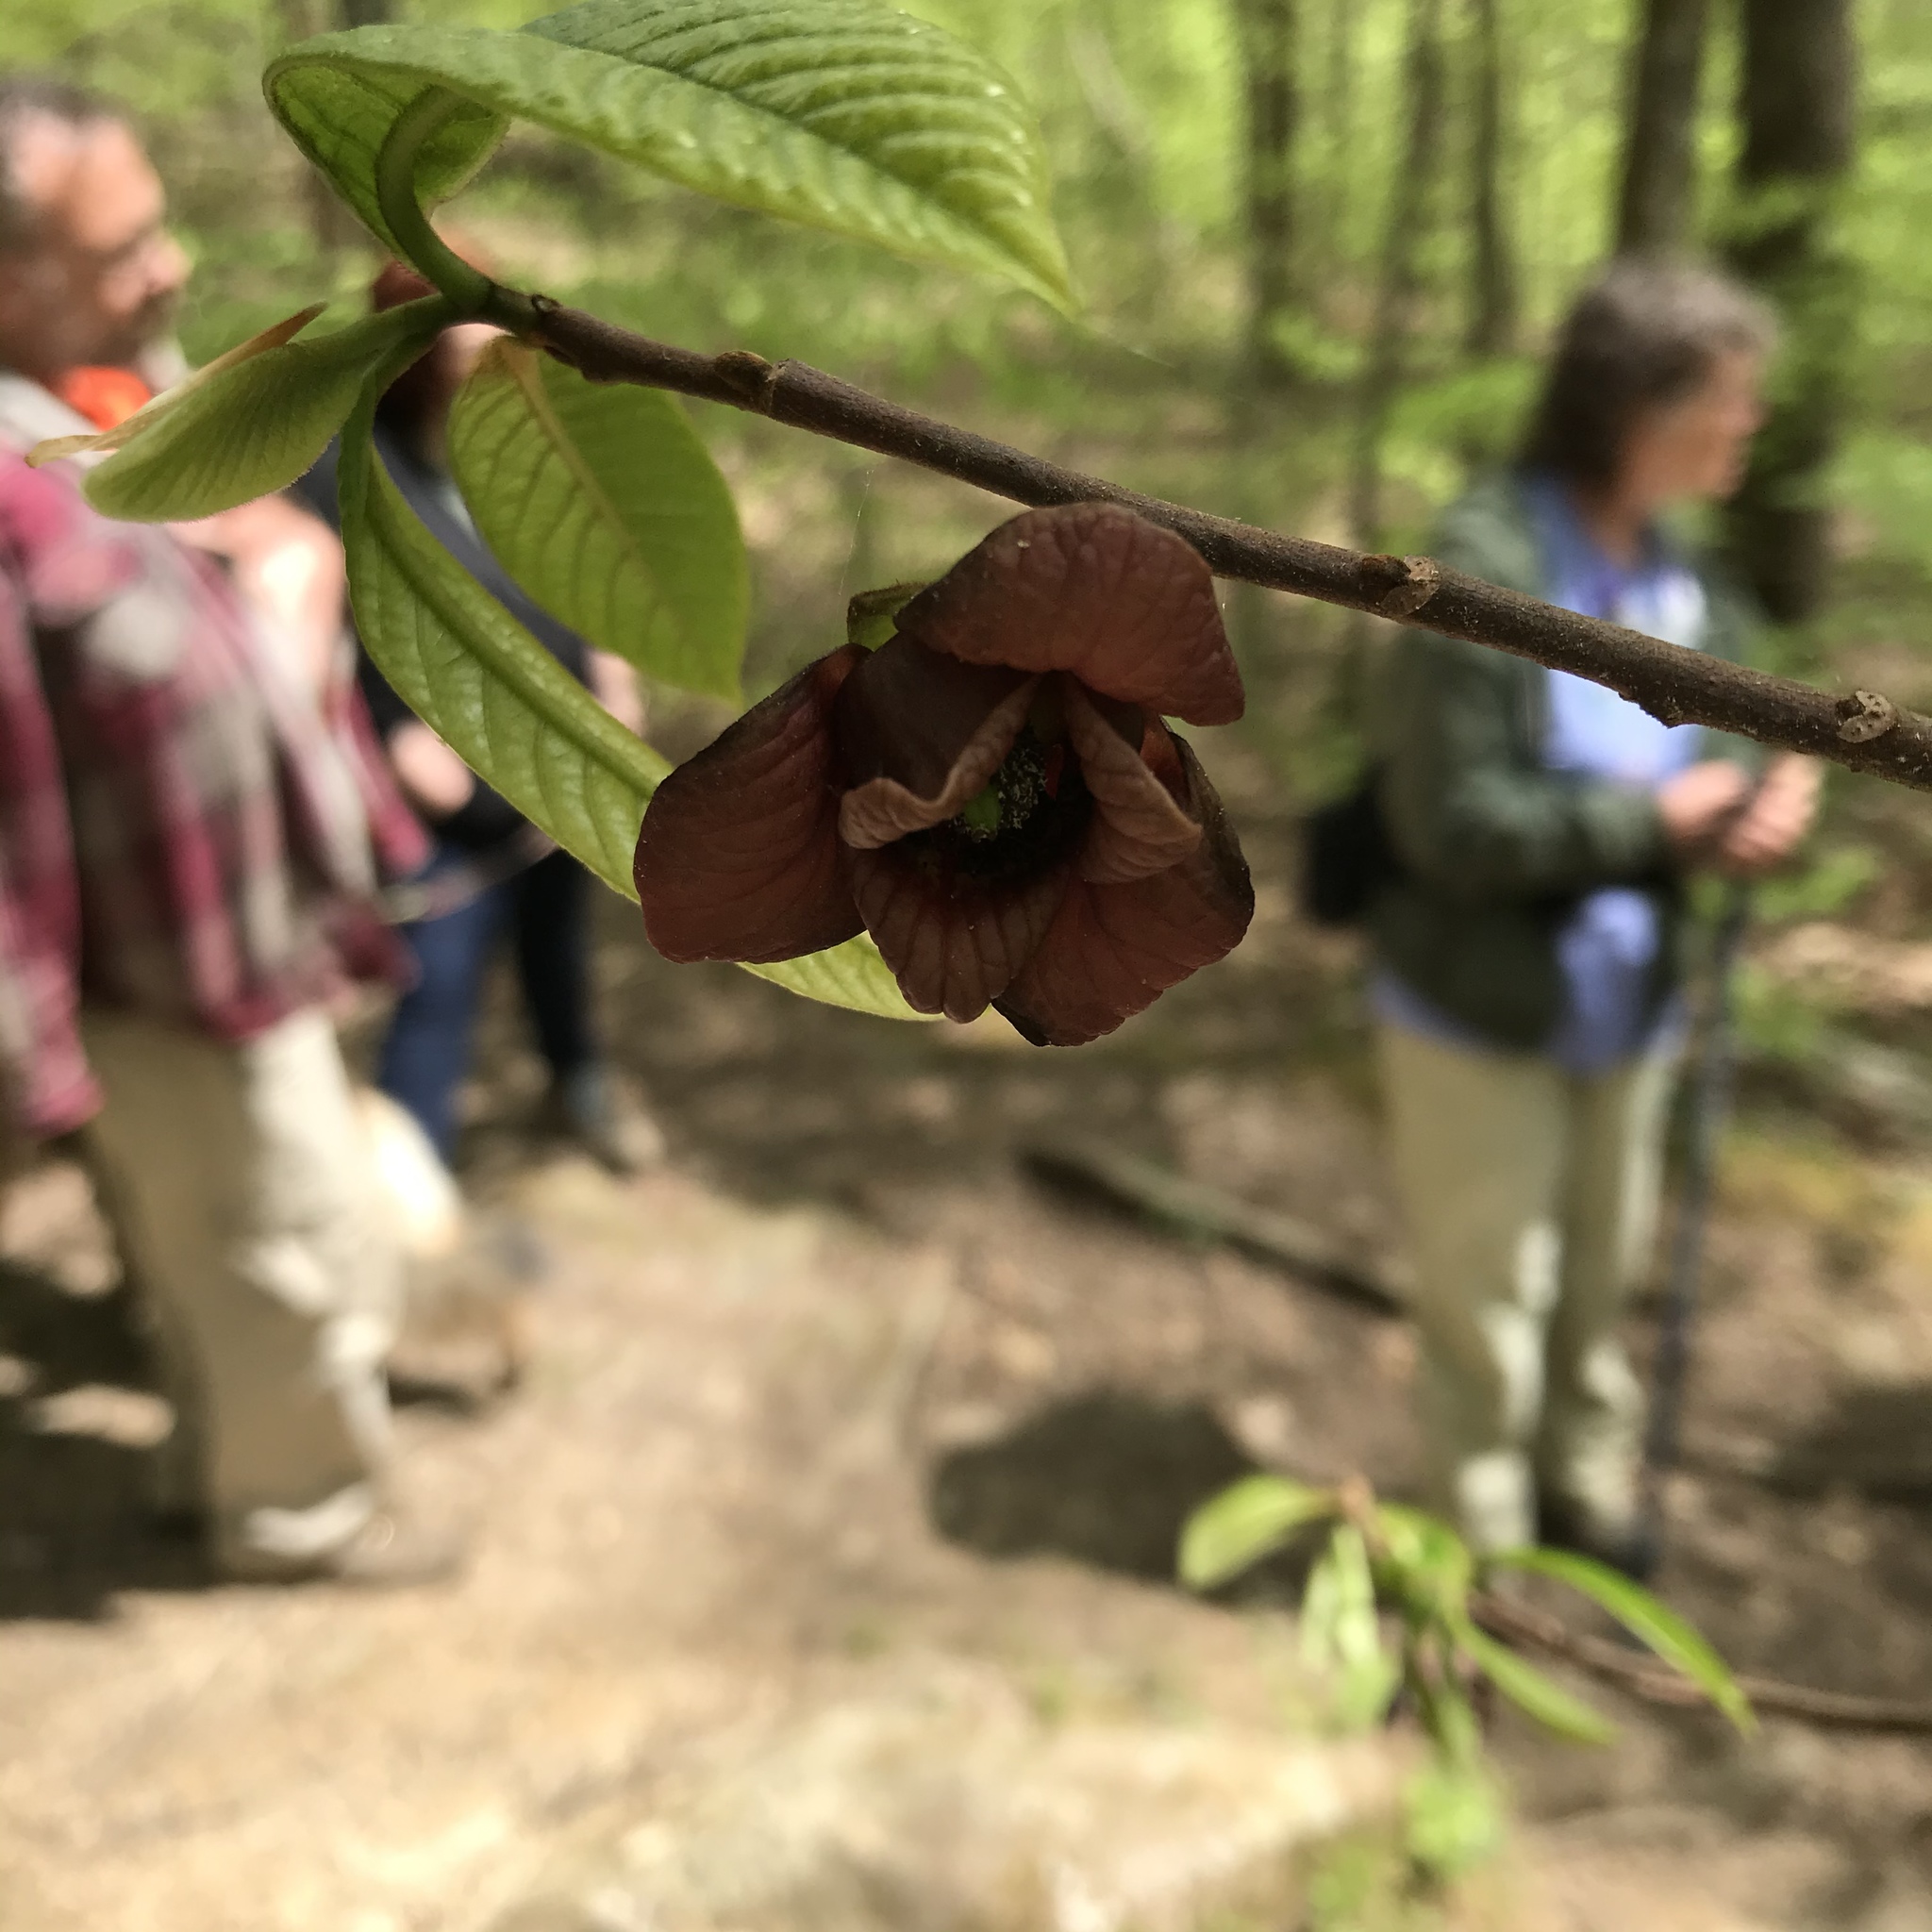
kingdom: Plantae
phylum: Tracheophyta
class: Magnoliopsida
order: Magnoliales
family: Annonaceae
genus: Asimina
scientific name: Asimina triloba
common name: Dog-banana
